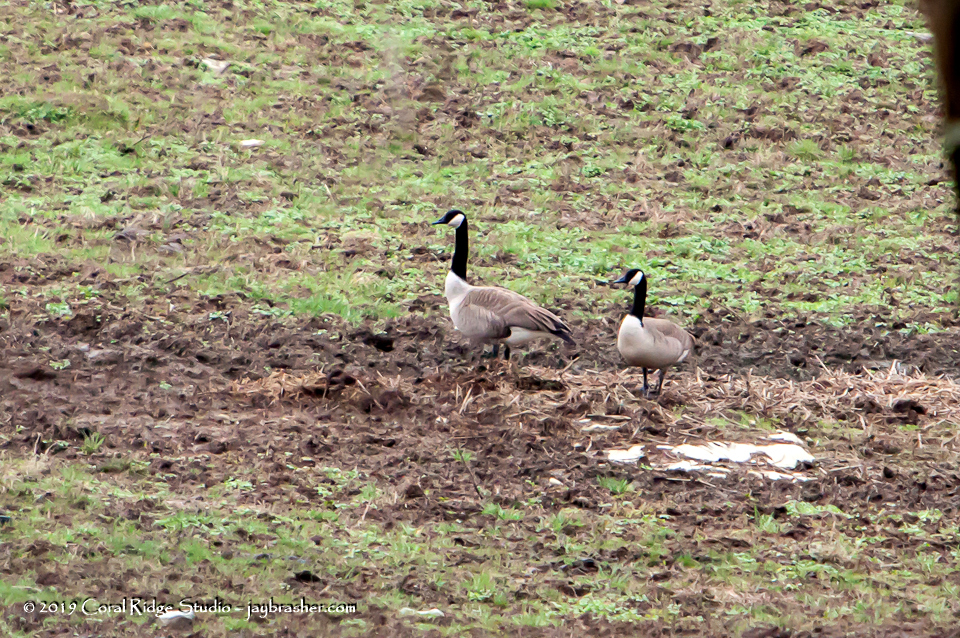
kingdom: Animalia
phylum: Chordata
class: Aves
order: Anseriformes
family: Anatidae
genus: Branta
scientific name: Branta canadensis
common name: Canada goose
